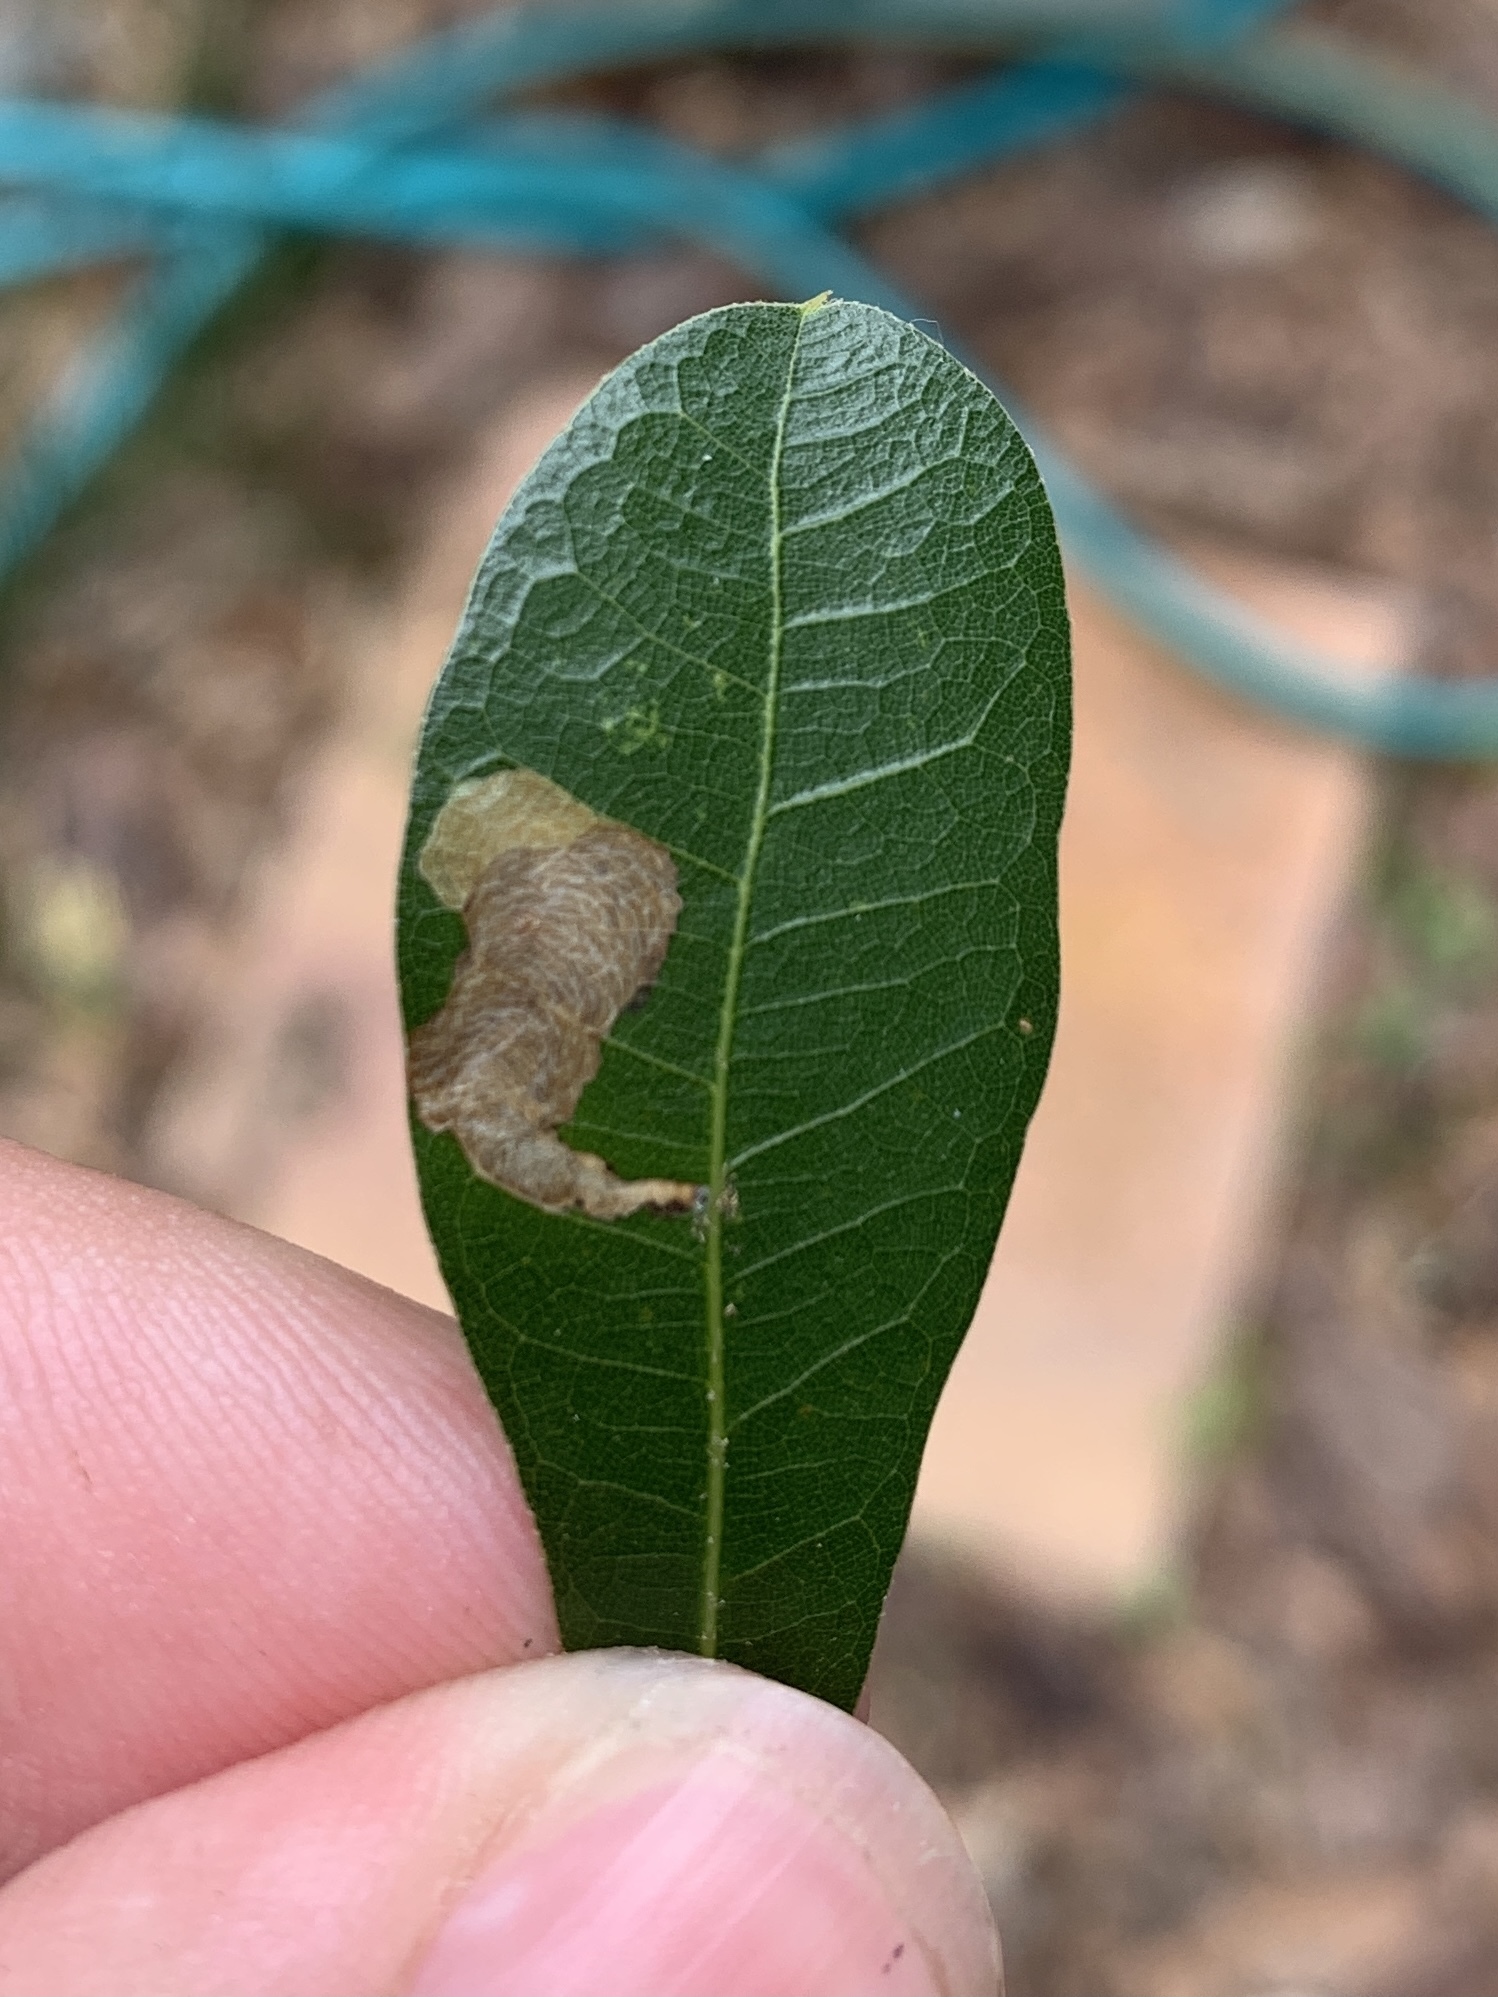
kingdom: Animalia
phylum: Arthropoda
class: Insecta
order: Lepidoptera
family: Tischeriidae
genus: Coptotriche
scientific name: Coptotriche castaneaeella
